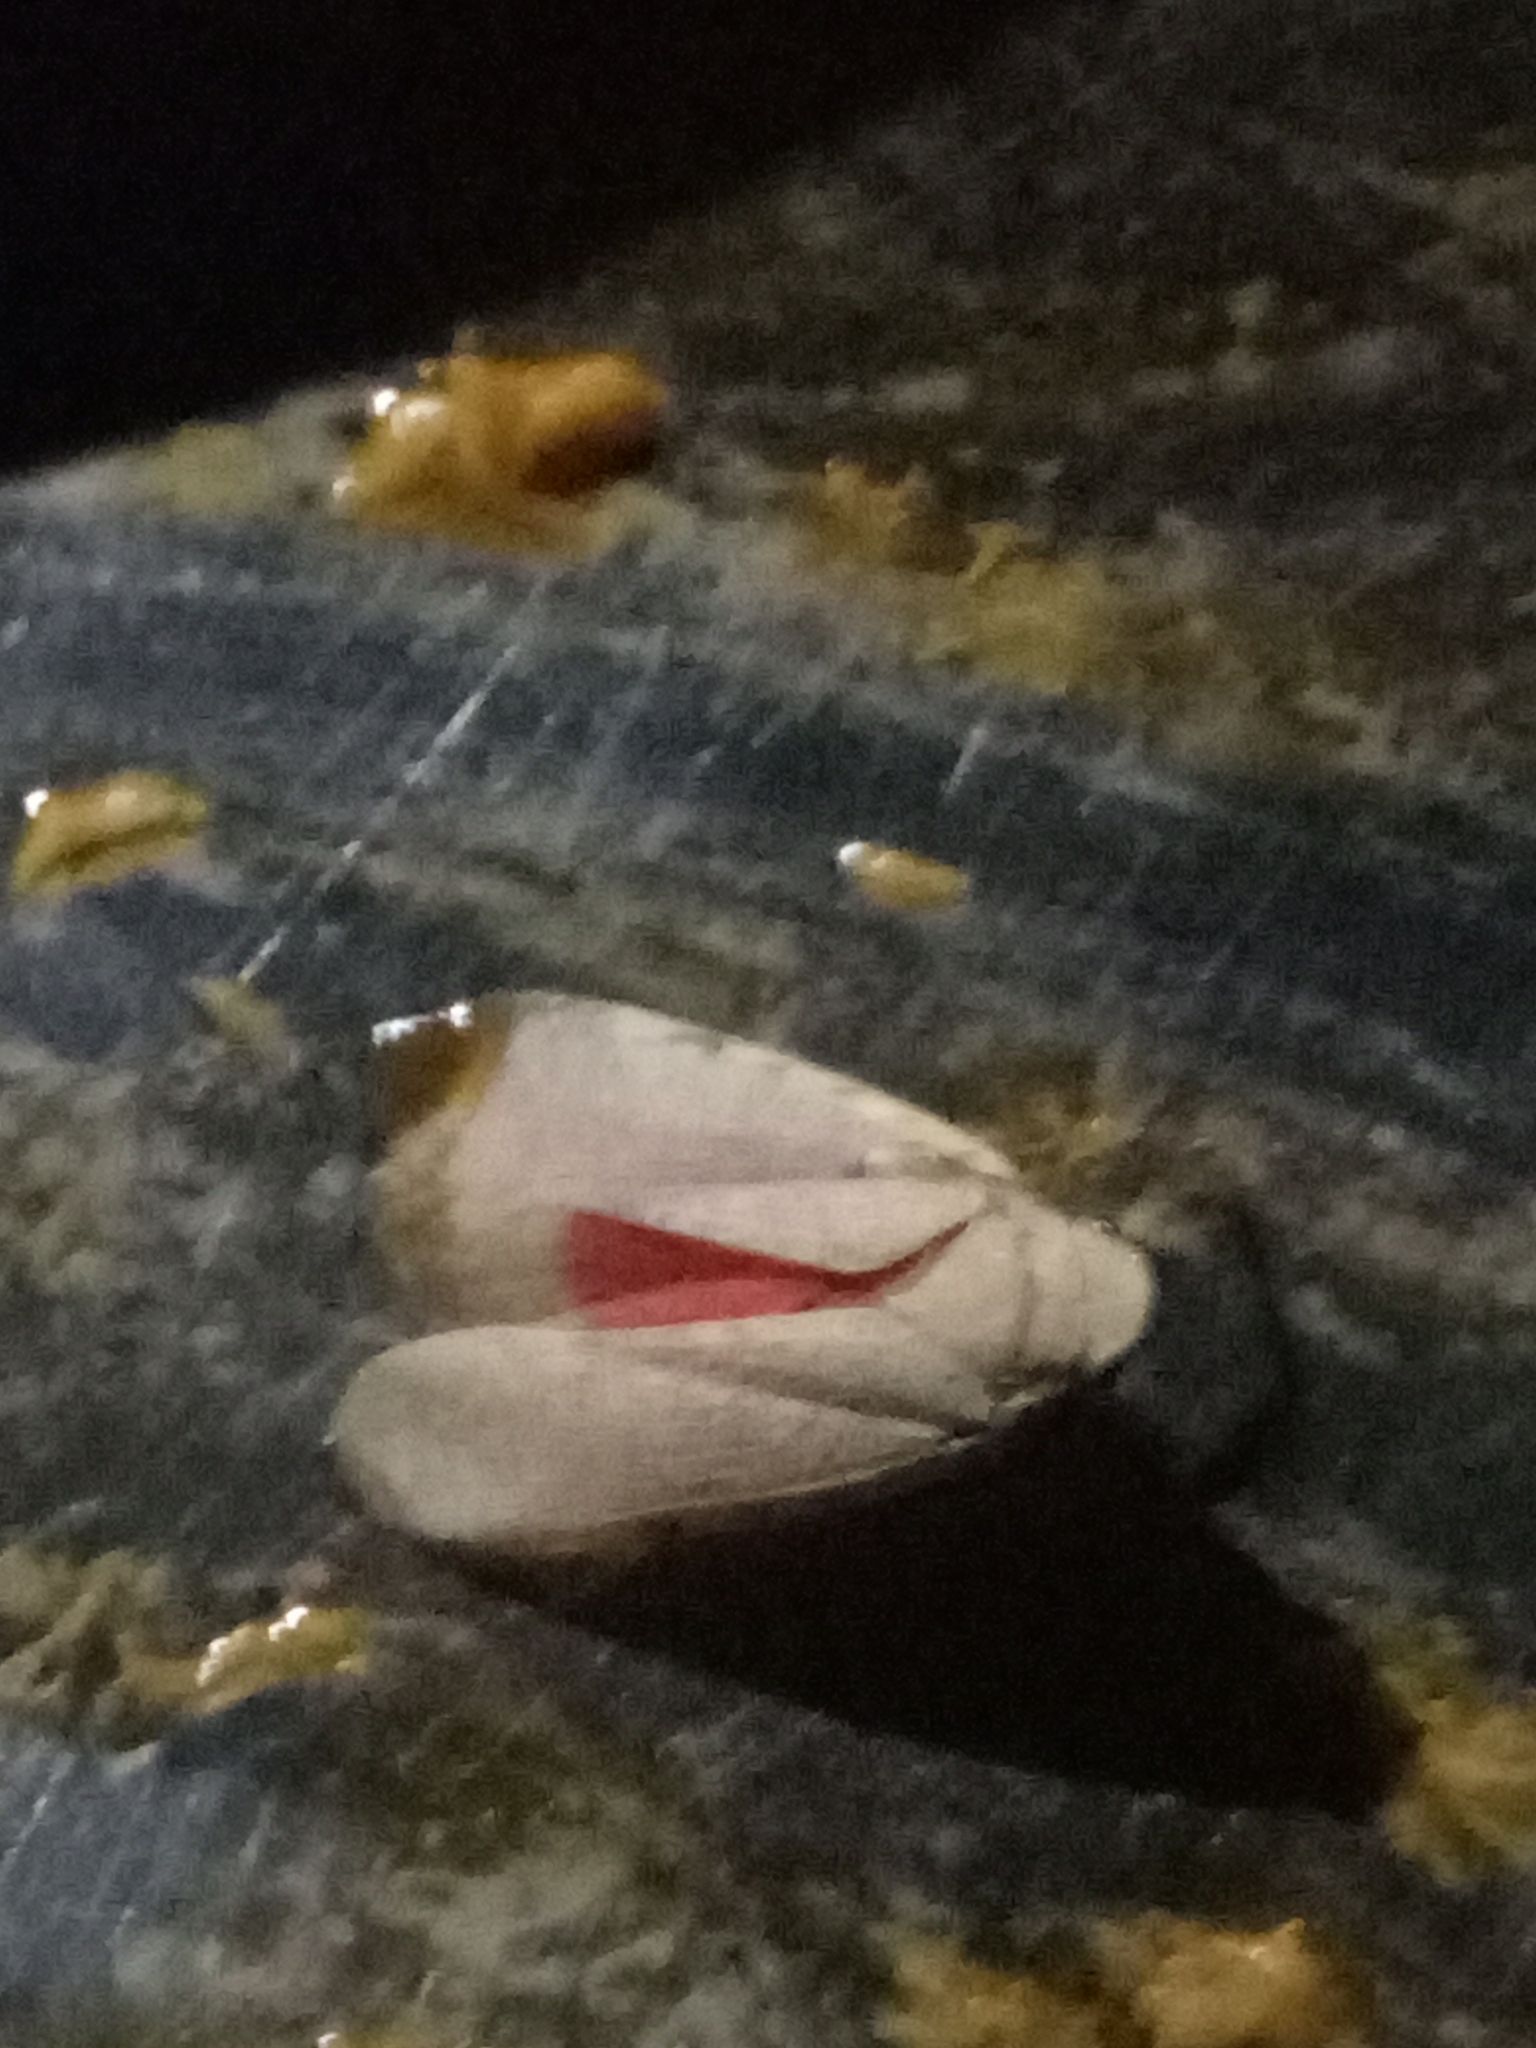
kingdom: Animalia
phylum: Arthropoda
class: Insecta
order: Hemiptera
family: Fulgoridae
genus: Omalocephala
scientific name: Omalocephala cincta
